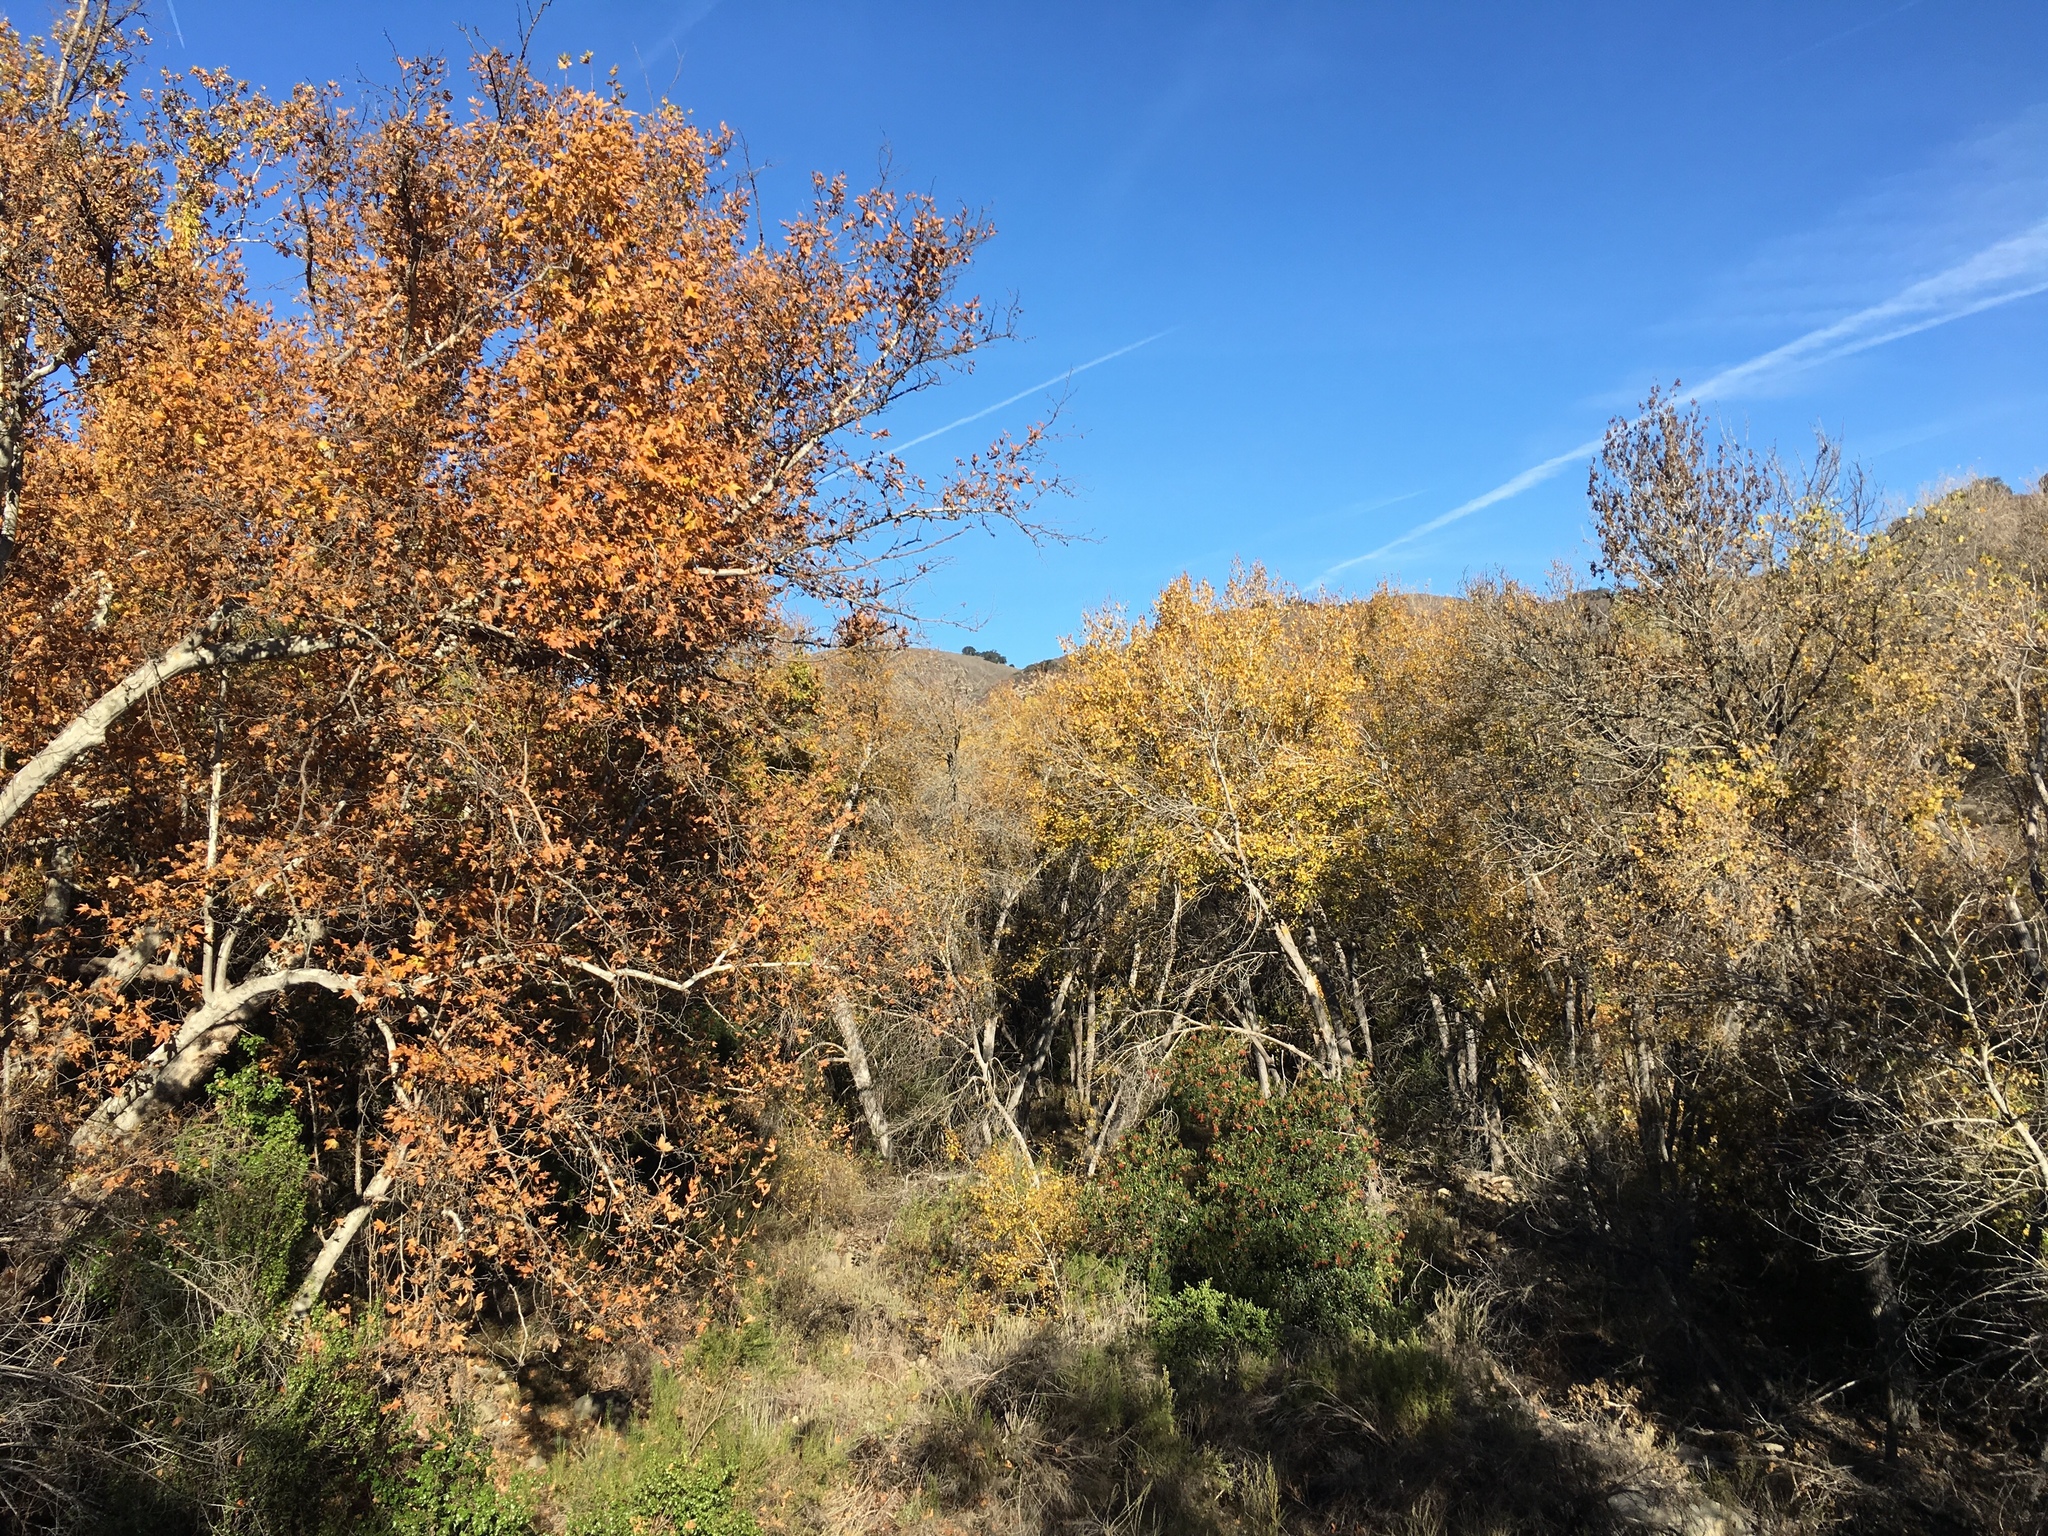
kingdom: Plantae
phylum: Tracheophyta
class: Magnoliopsida
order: Proteales
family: Platanaceae
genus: Platanus
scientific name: Platanus racemosa
